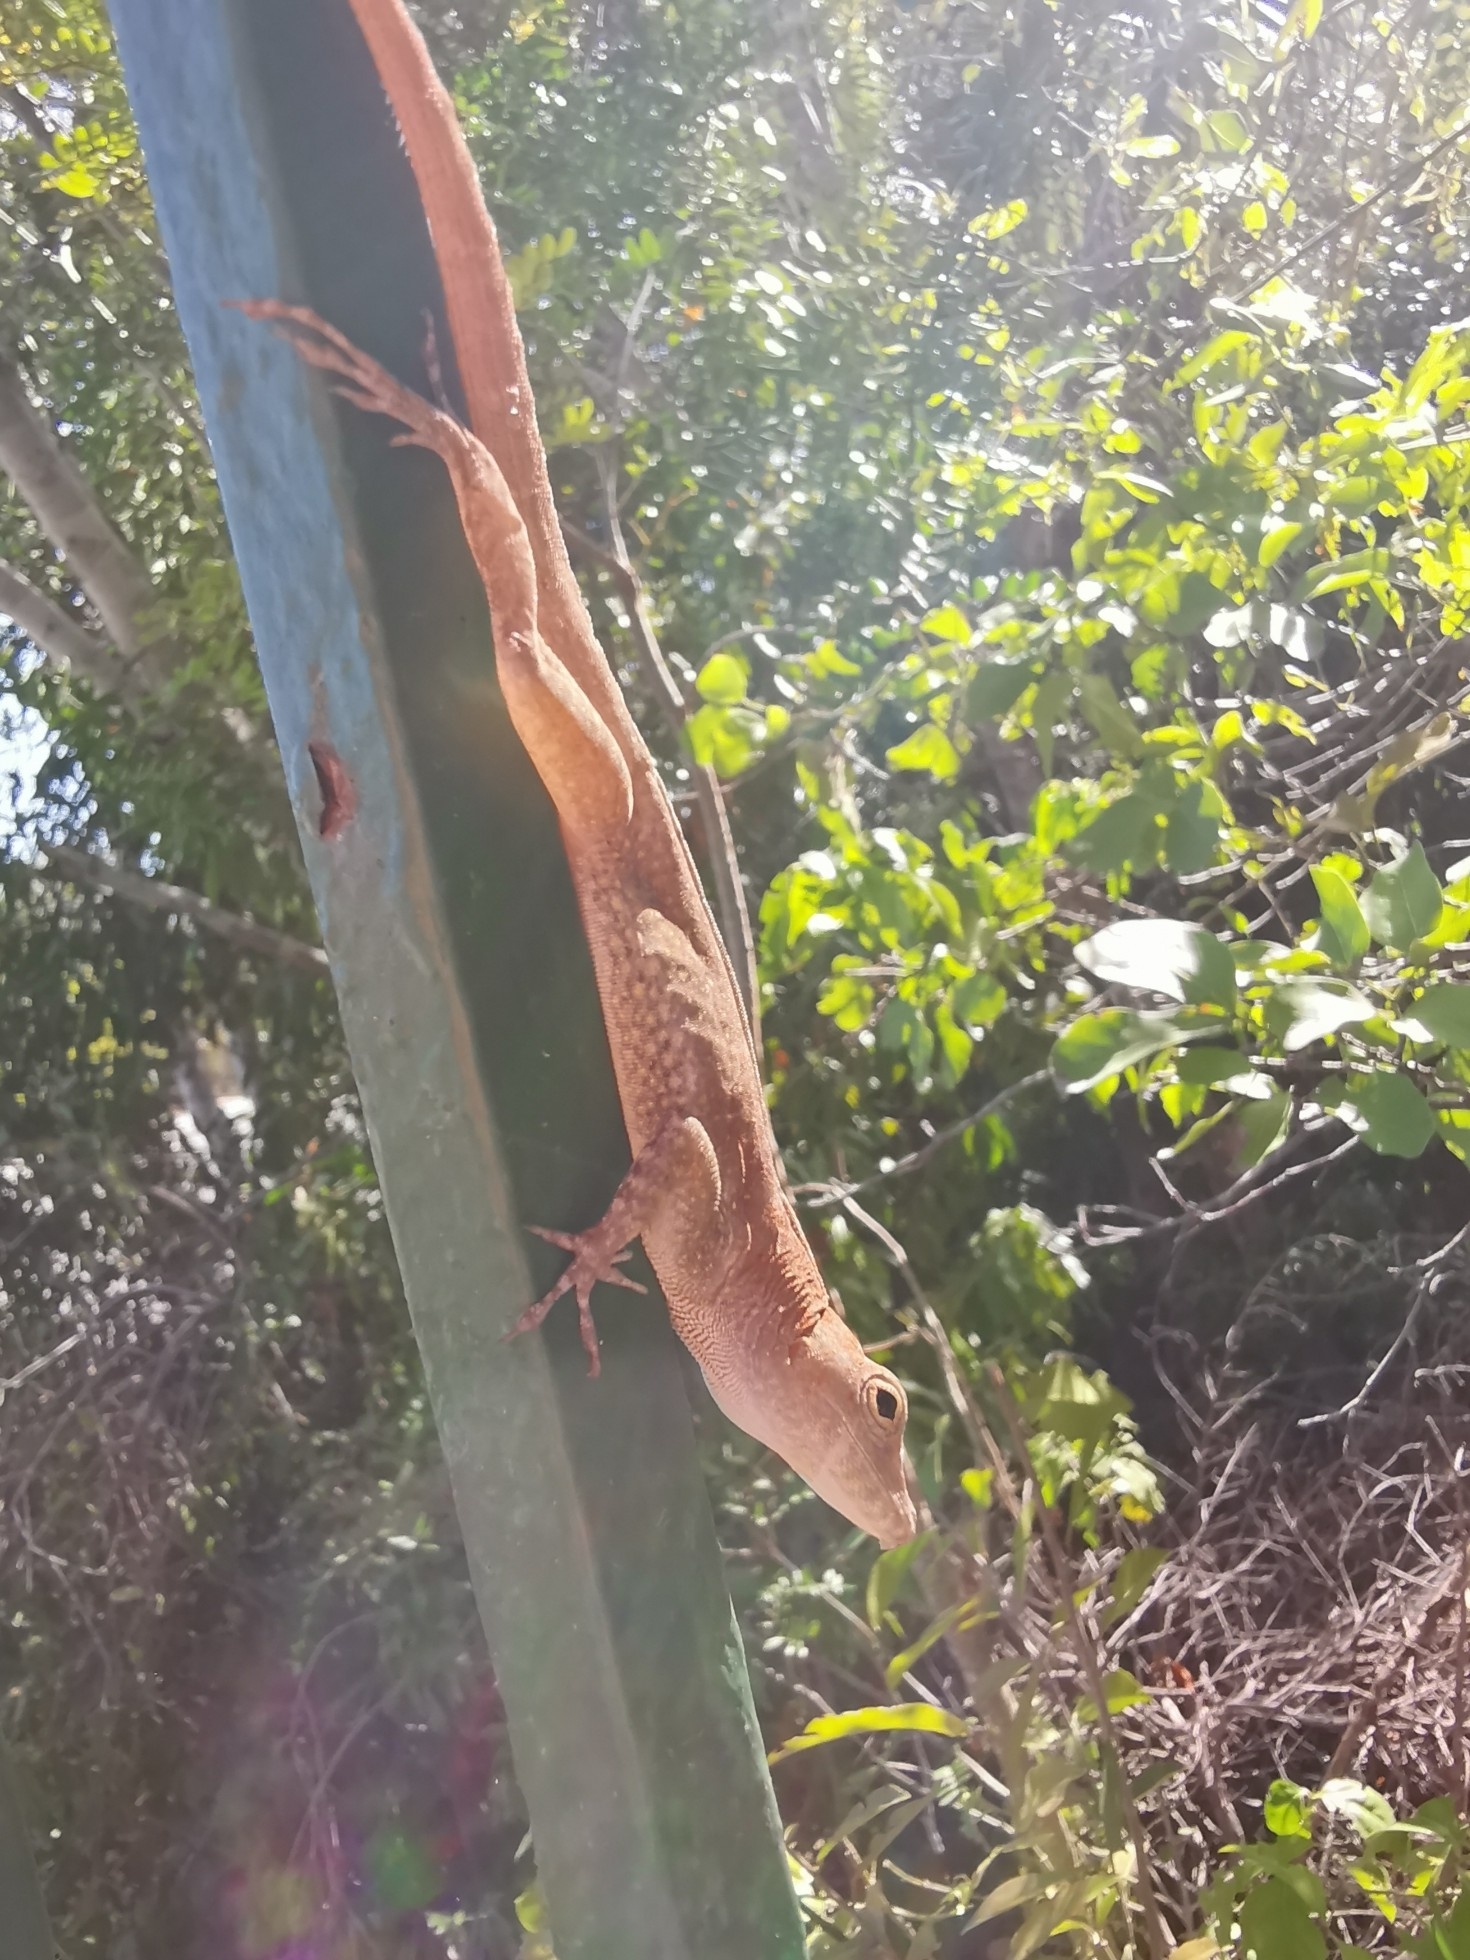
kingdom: Animalia
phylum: Chordata
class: Squamata
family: Dactyloidae
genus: Anolis
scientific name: Anolis scriptus
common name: Silver key anole
